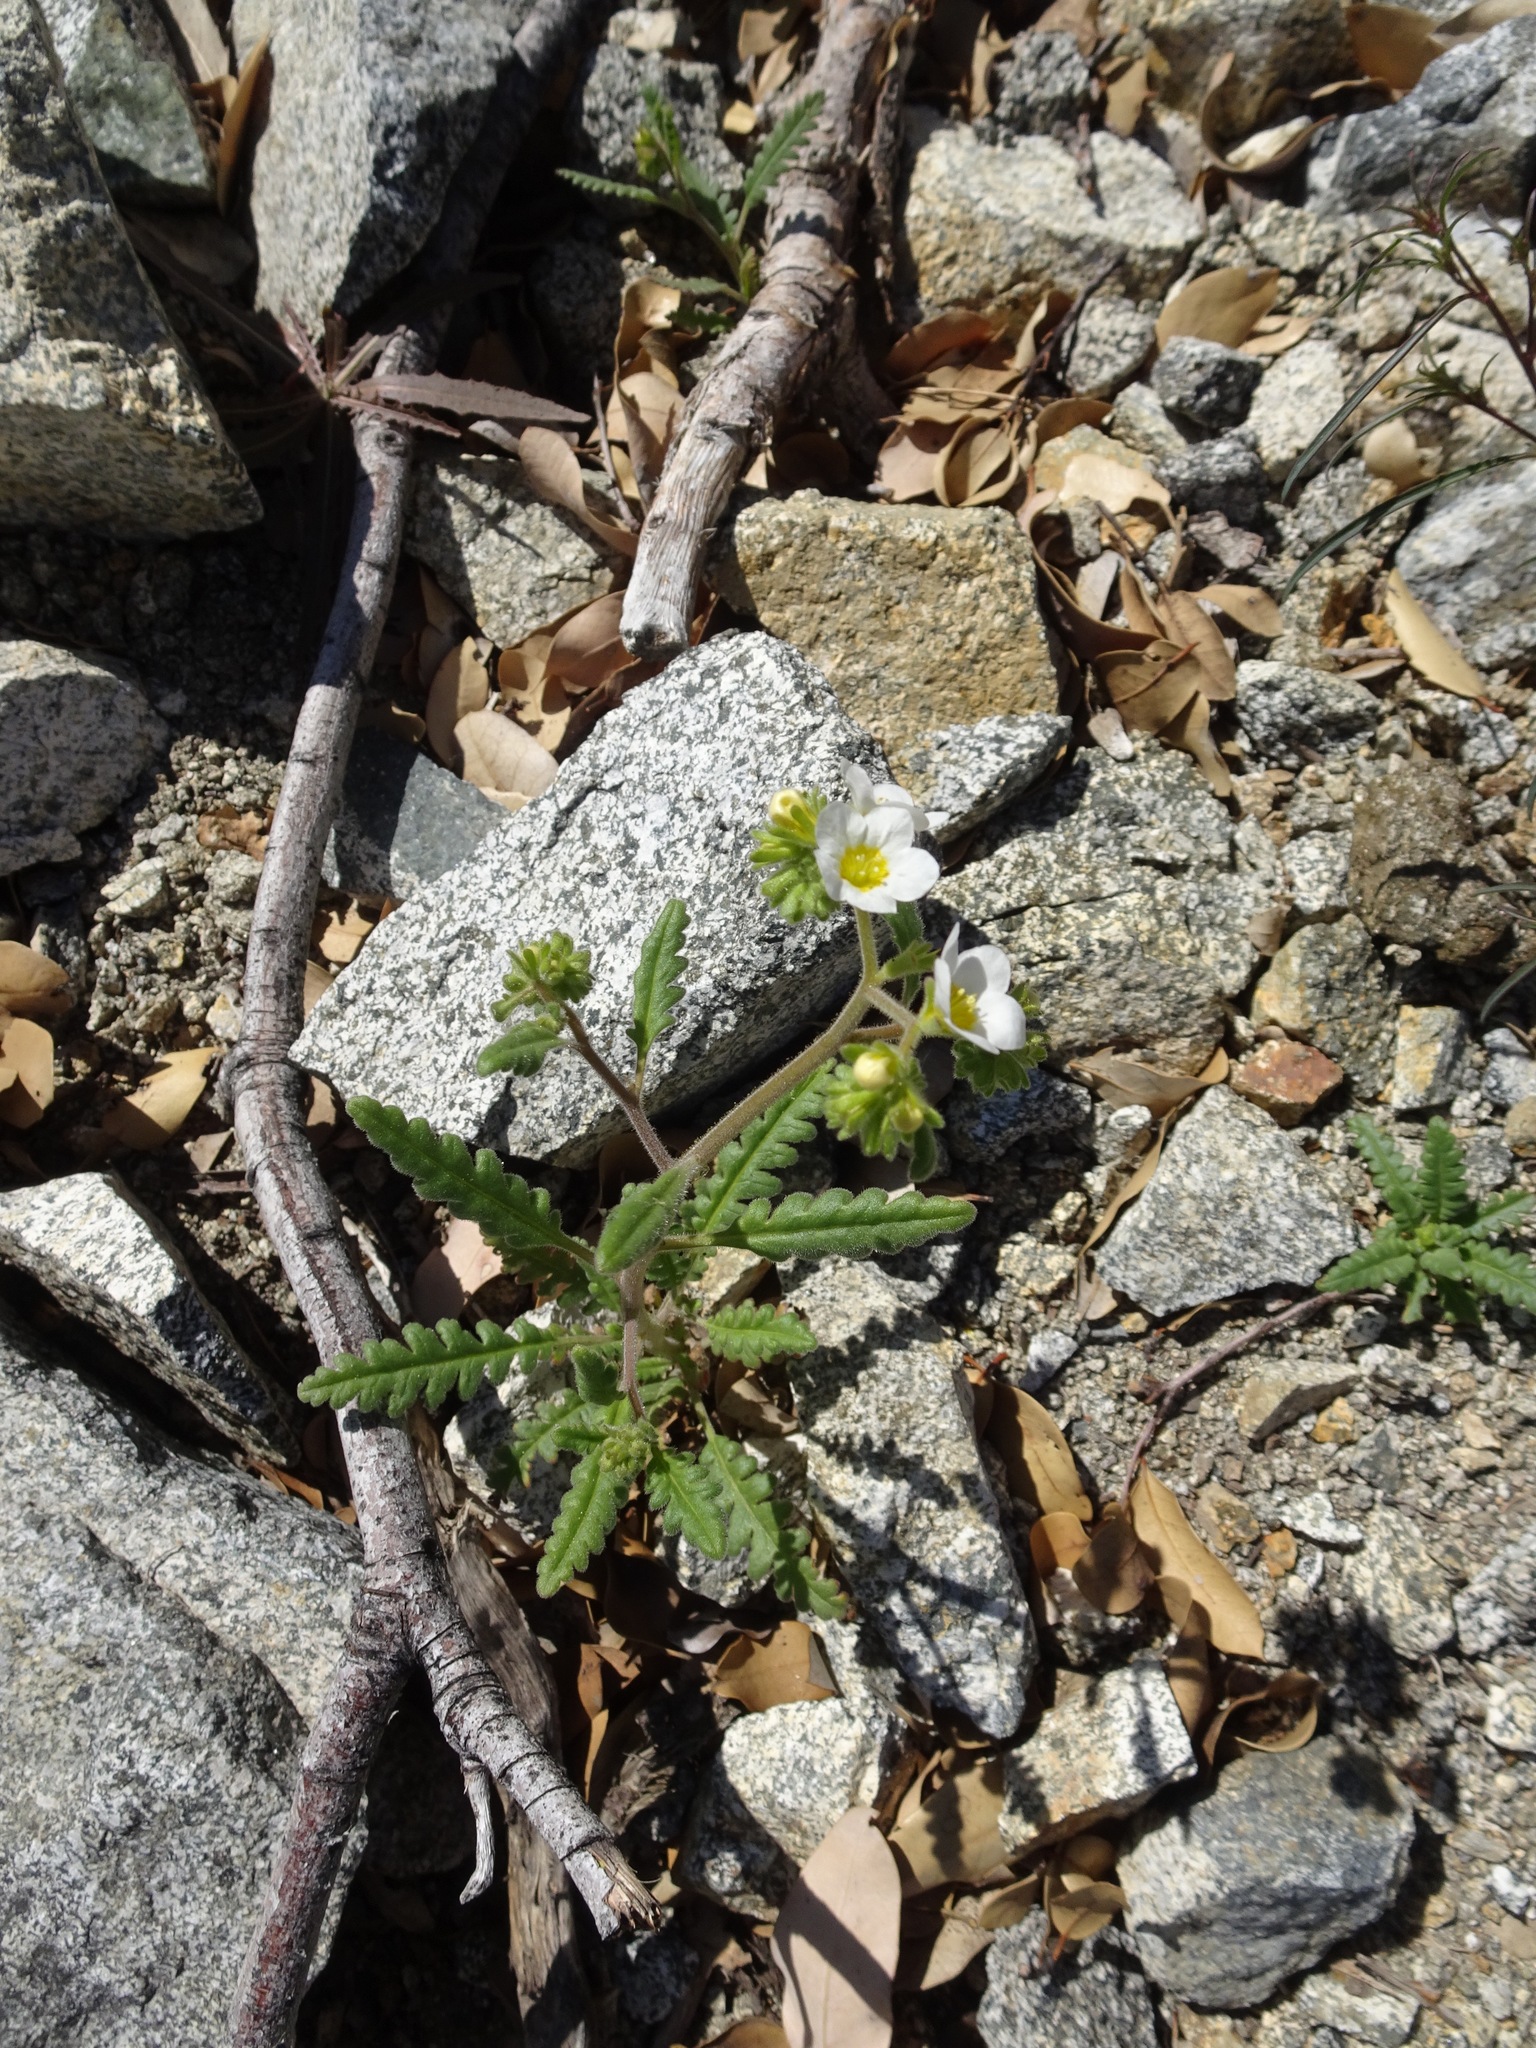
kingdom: Plantae
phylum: Tracheophyta
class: Magnoliopsida
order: Boraginales
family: Hydrophyllaceae
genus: Phacelia
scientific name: Phacelia brachyloba
